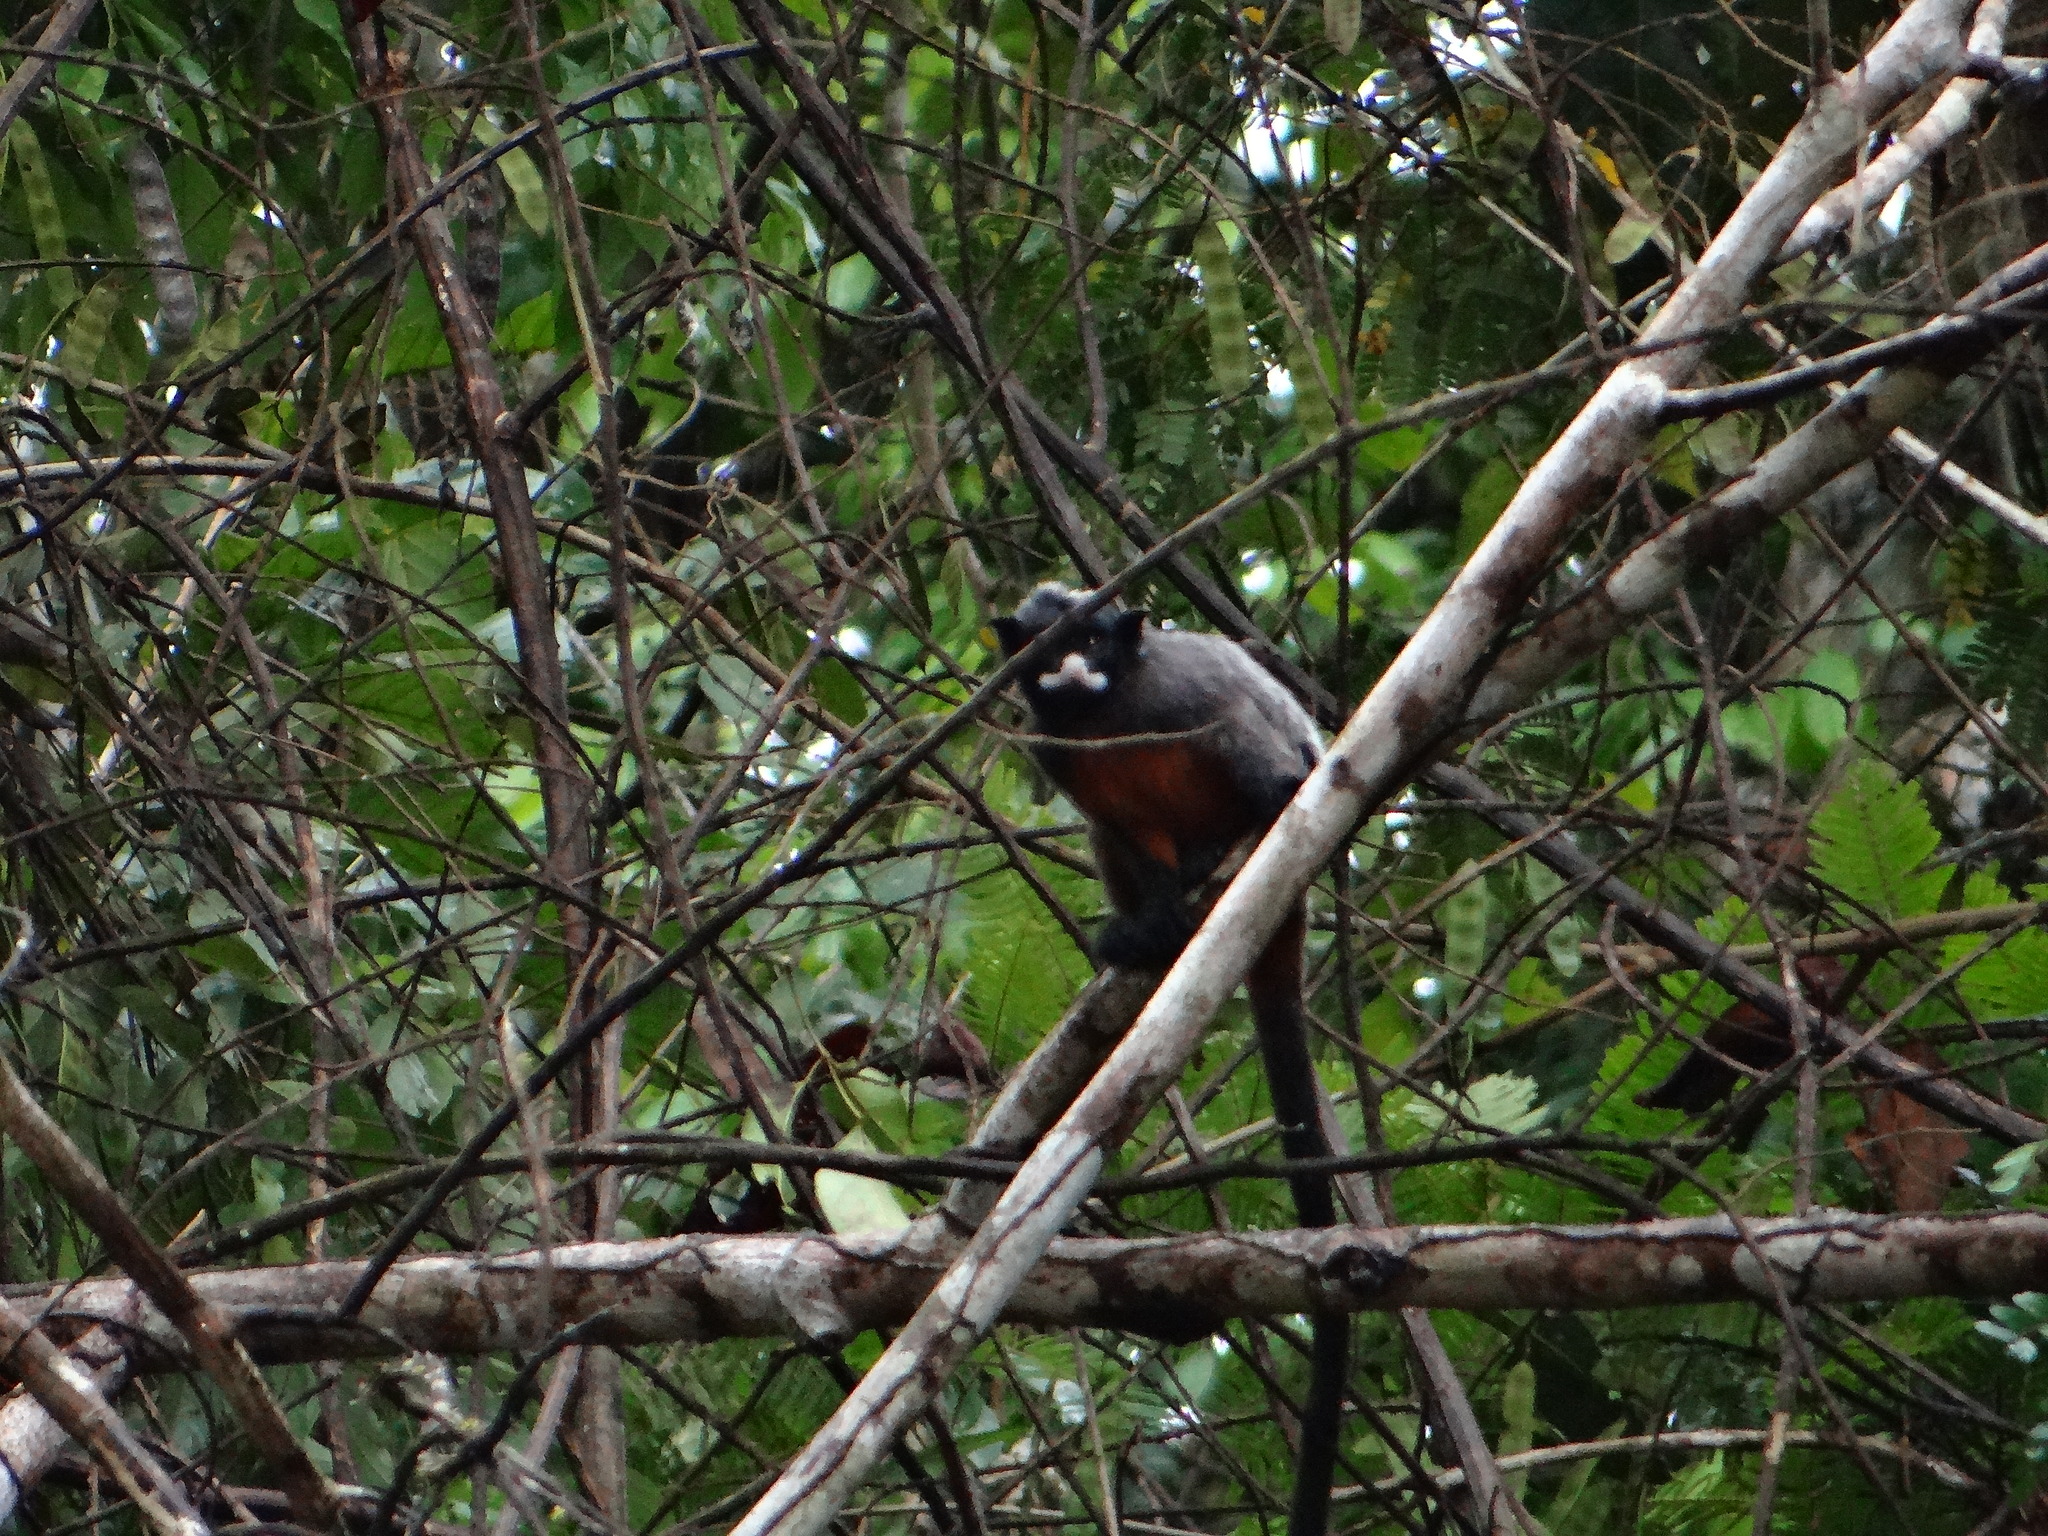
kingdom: Animalia
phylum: Chordata
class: Mammalia
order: Primates
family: Callitrichidae
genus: Saguinus
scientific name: Saguinus labiatus
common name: Red-chested mustached tamarin
